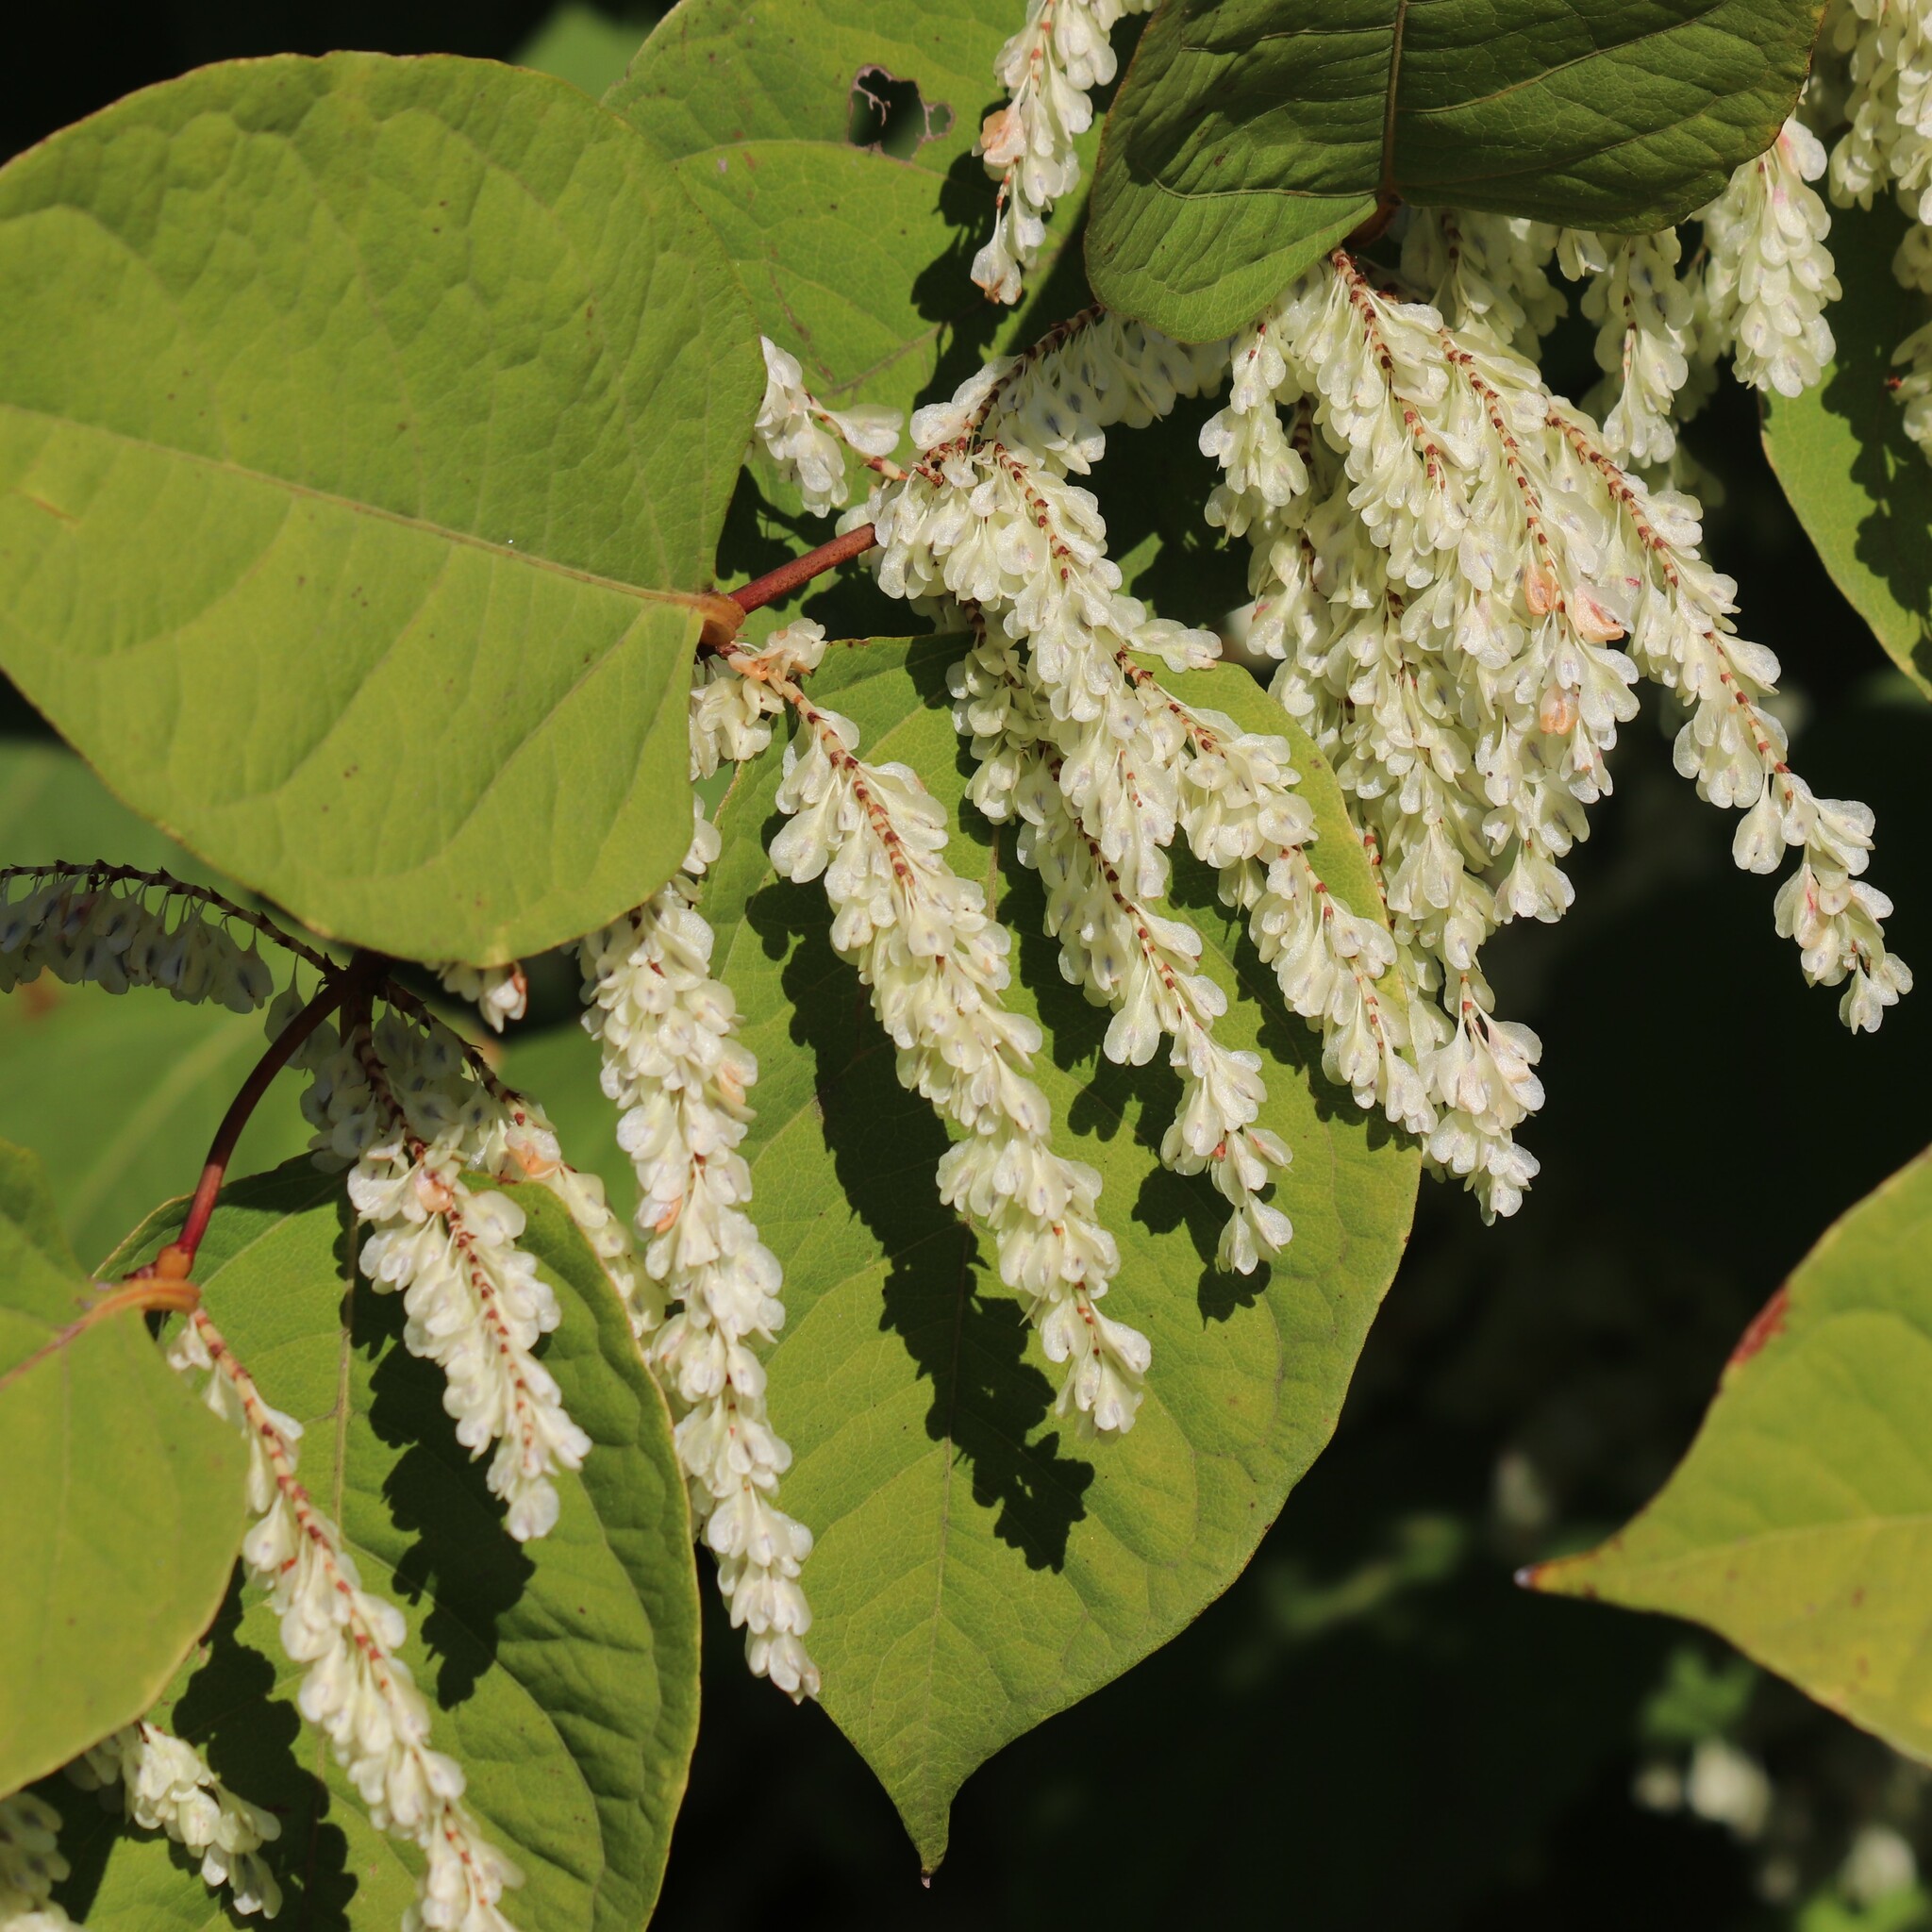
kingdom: Plantae
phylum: Tracheophyta
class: Magnoliopsida
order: Caryophyllales
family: Polygonaceae
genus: Reynoutria
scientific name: Reynoutria japonica
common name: Japanese knotweed
